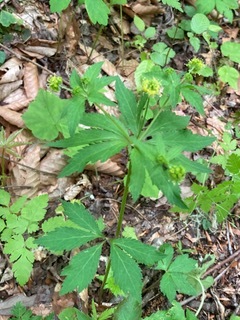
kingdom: Plantae
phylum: Tracheophyta
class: Magnoliopsida
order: Apiales
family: Apiaceae
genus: Sanicula
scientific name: Sanicula odorata
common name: Cluster sanicle
